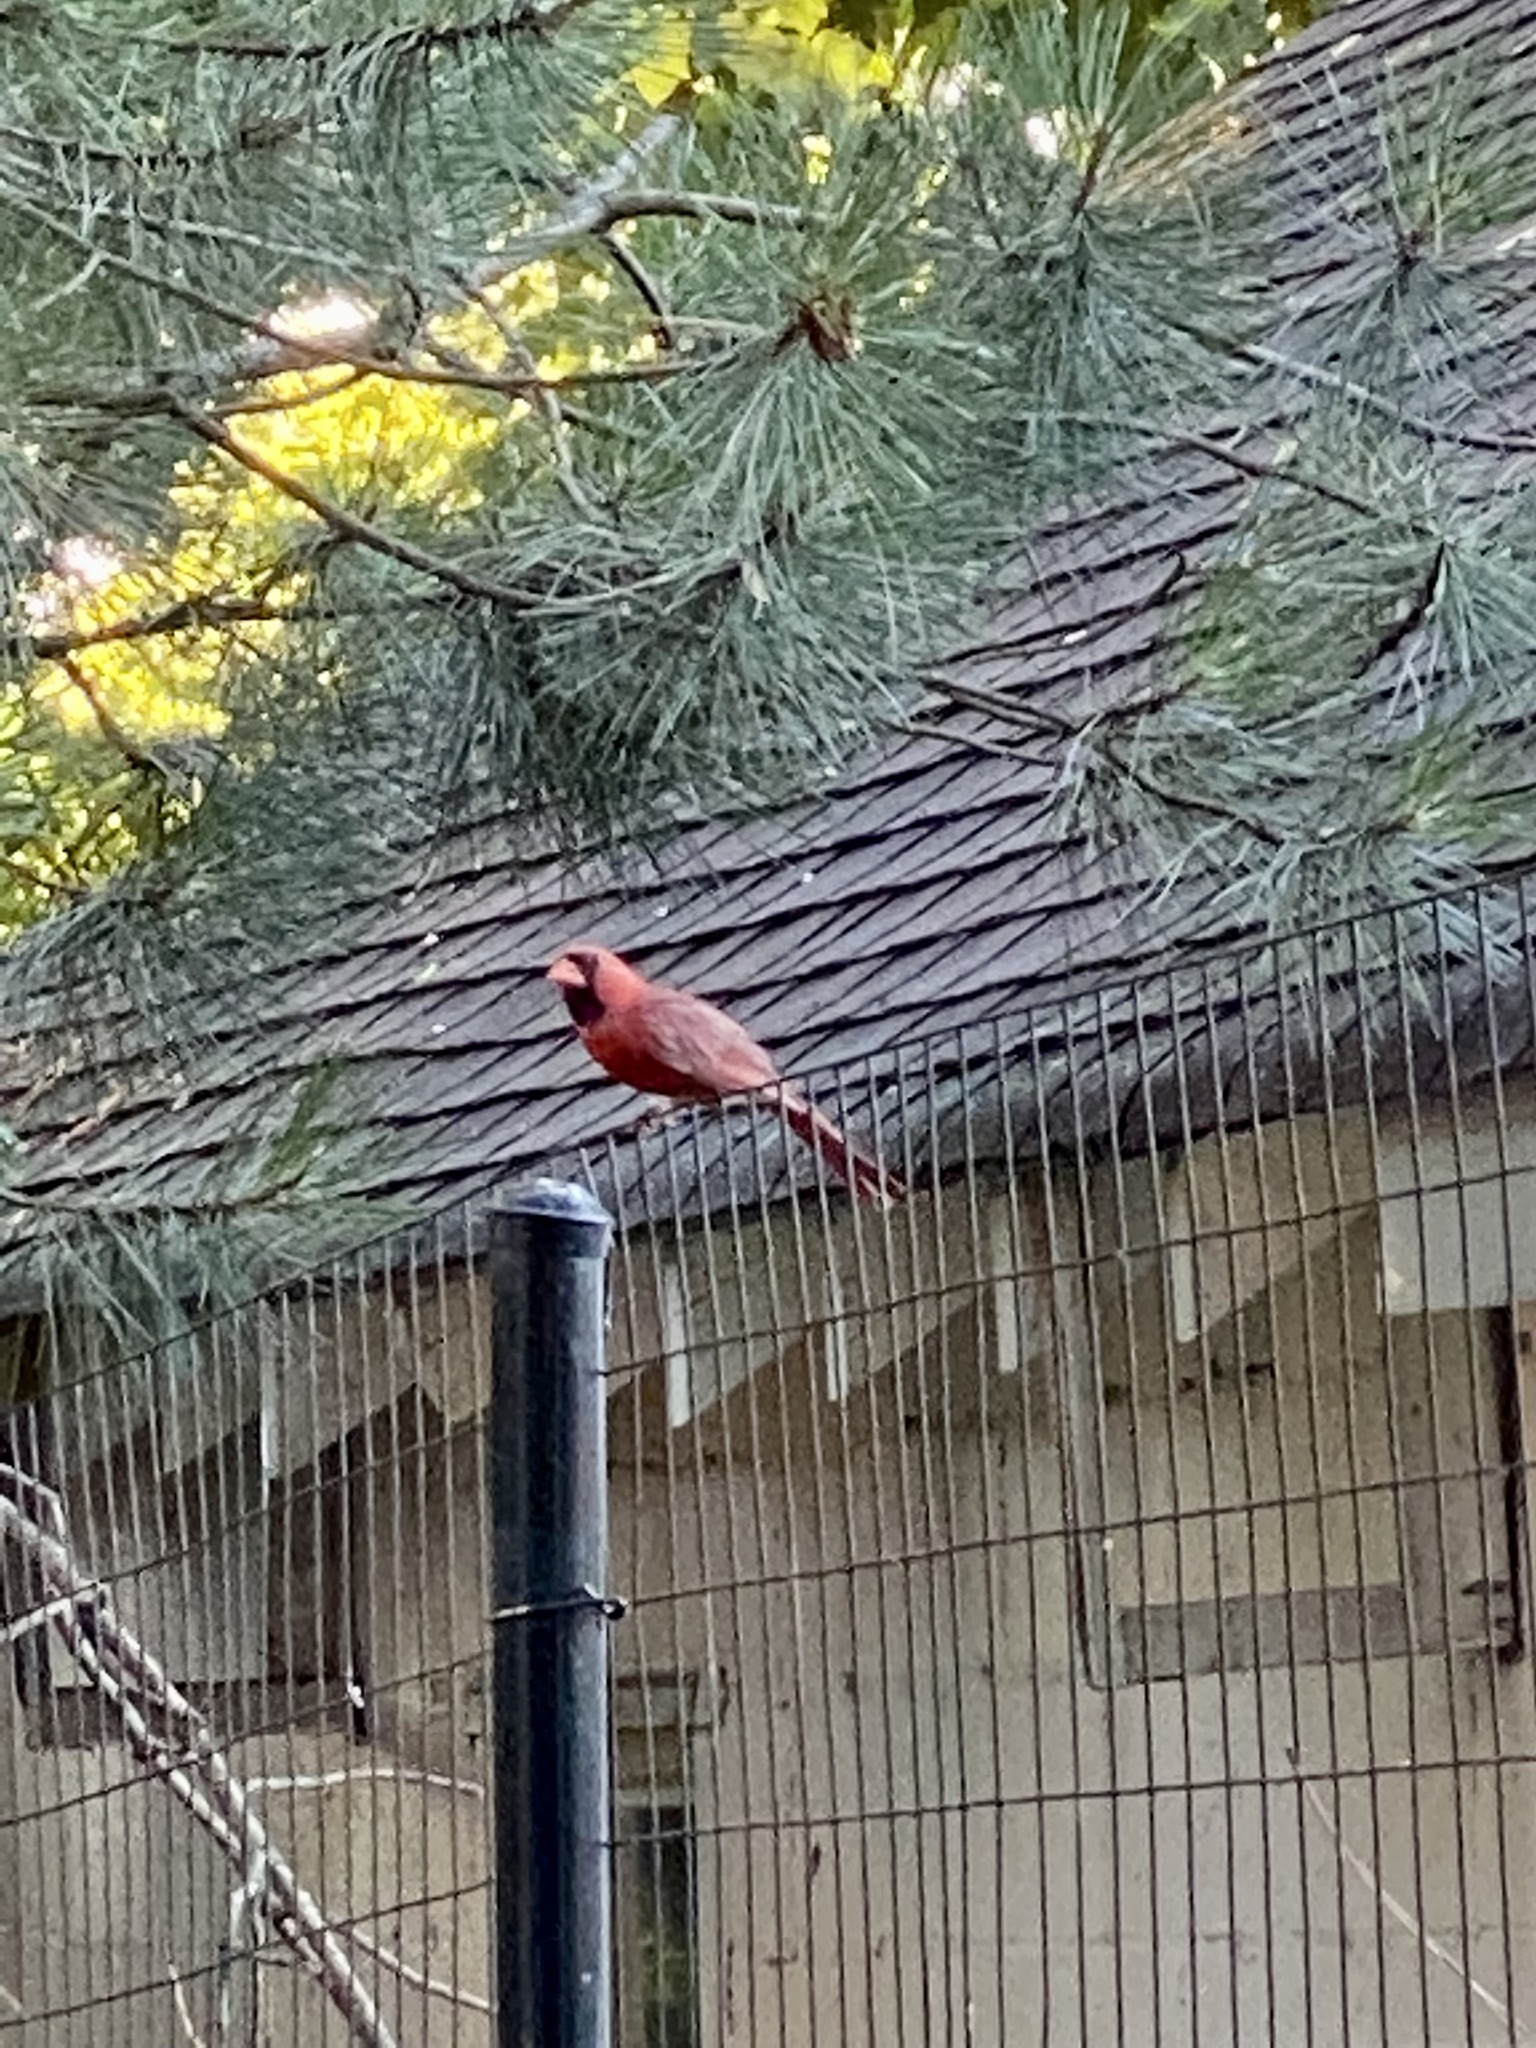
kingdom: Animalia
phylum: Chordata
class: Aves
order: Passeriformes
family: Cardinalidae
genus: Cardinalis
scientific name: Cardinalis cardinalis
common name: Northern cardinal
